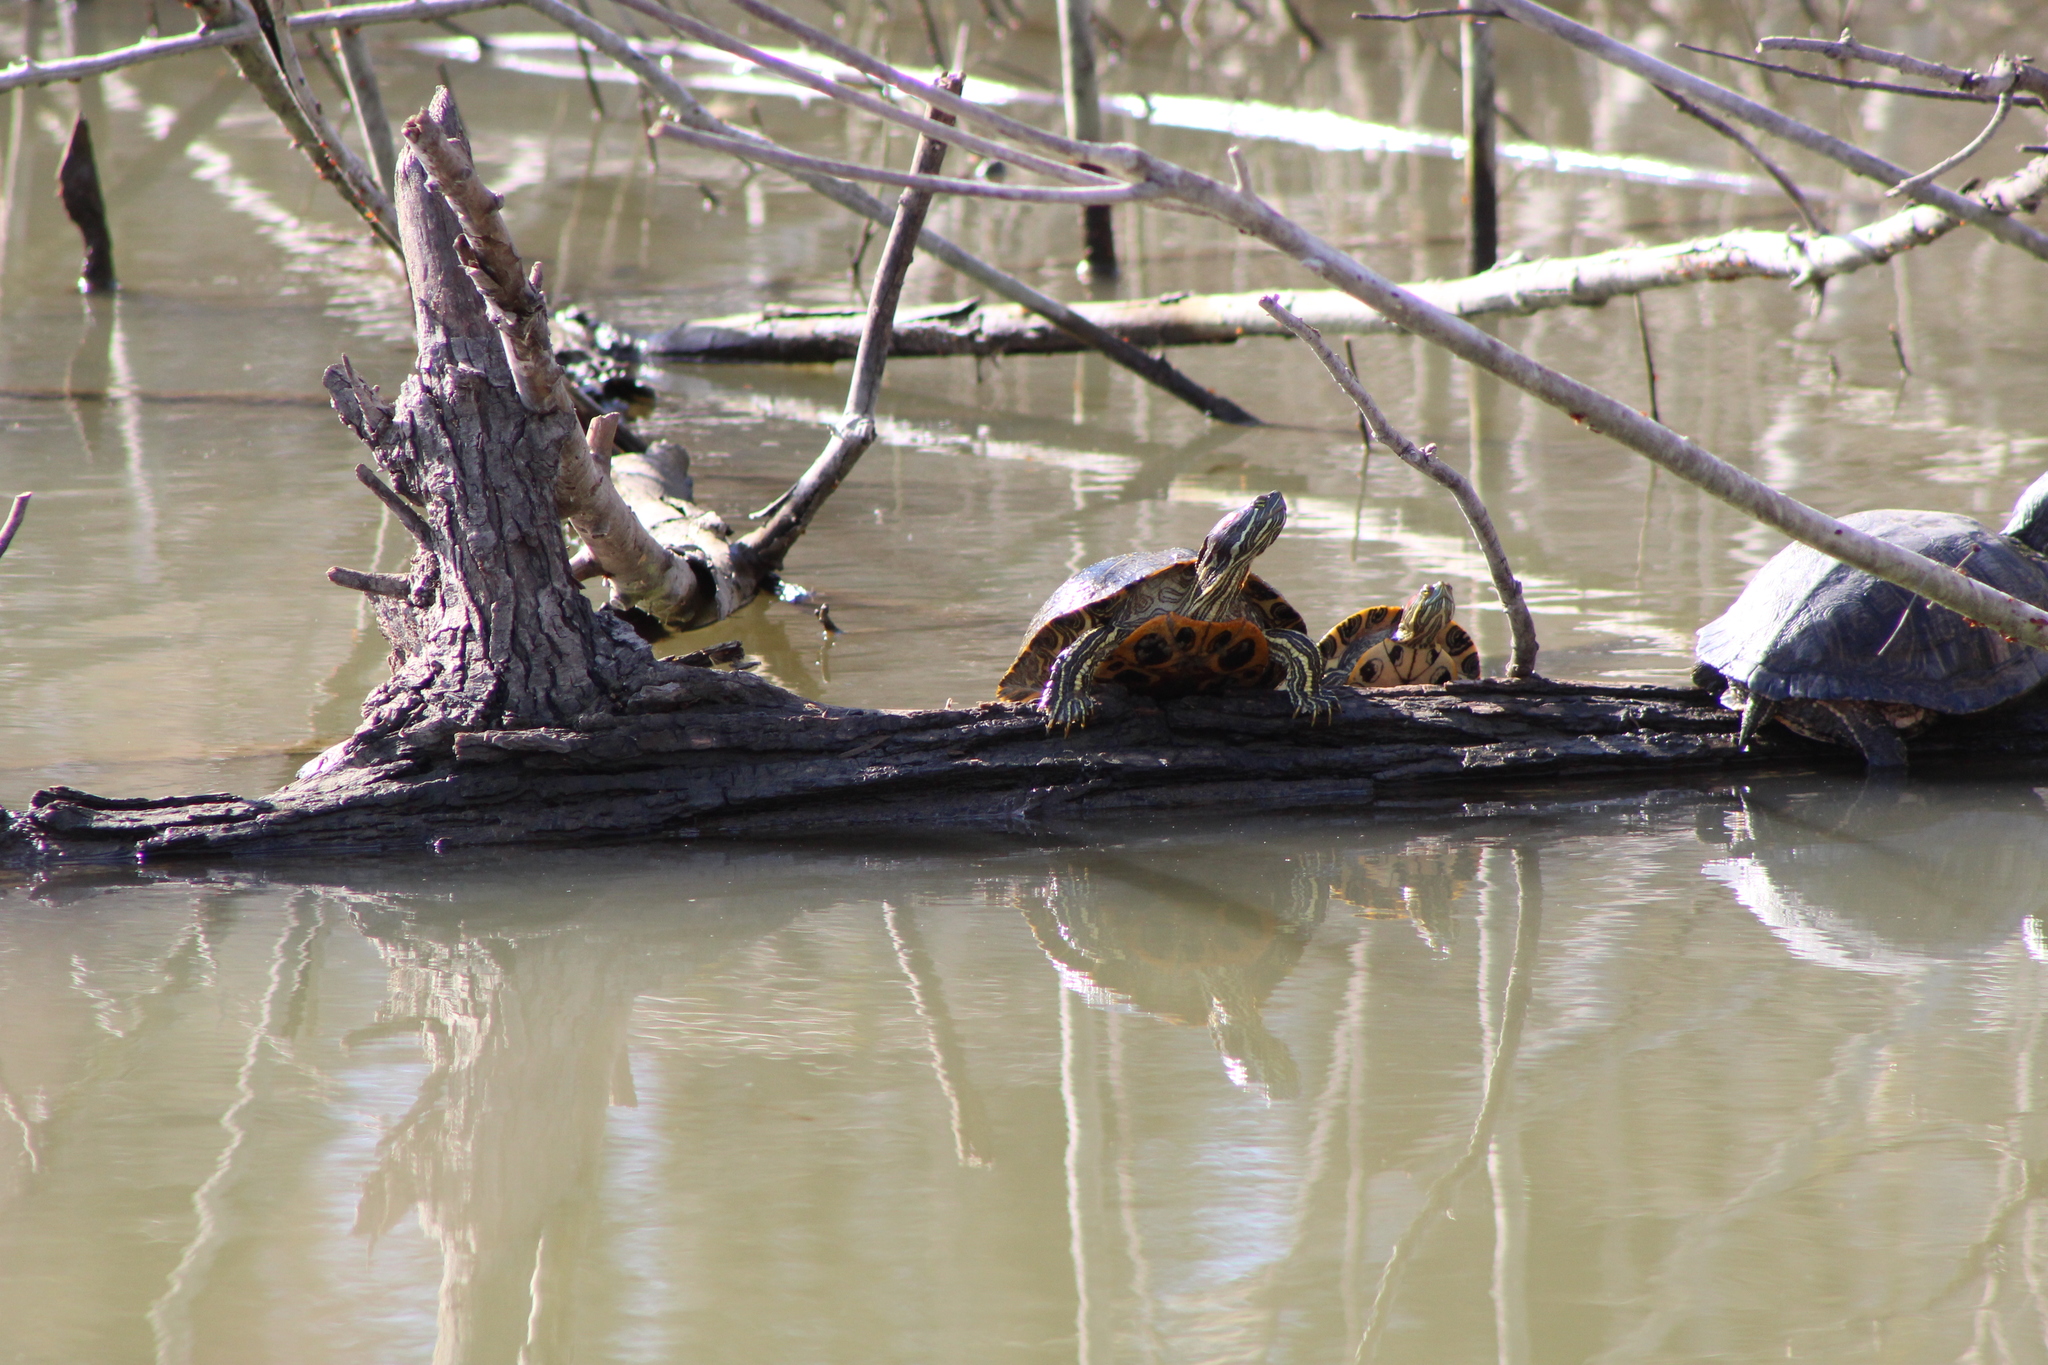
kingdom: Animalia
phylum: Chordata
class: Testudines
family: Emydidae
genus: Trachemys
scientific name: Trachemys scripta
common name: Slider
